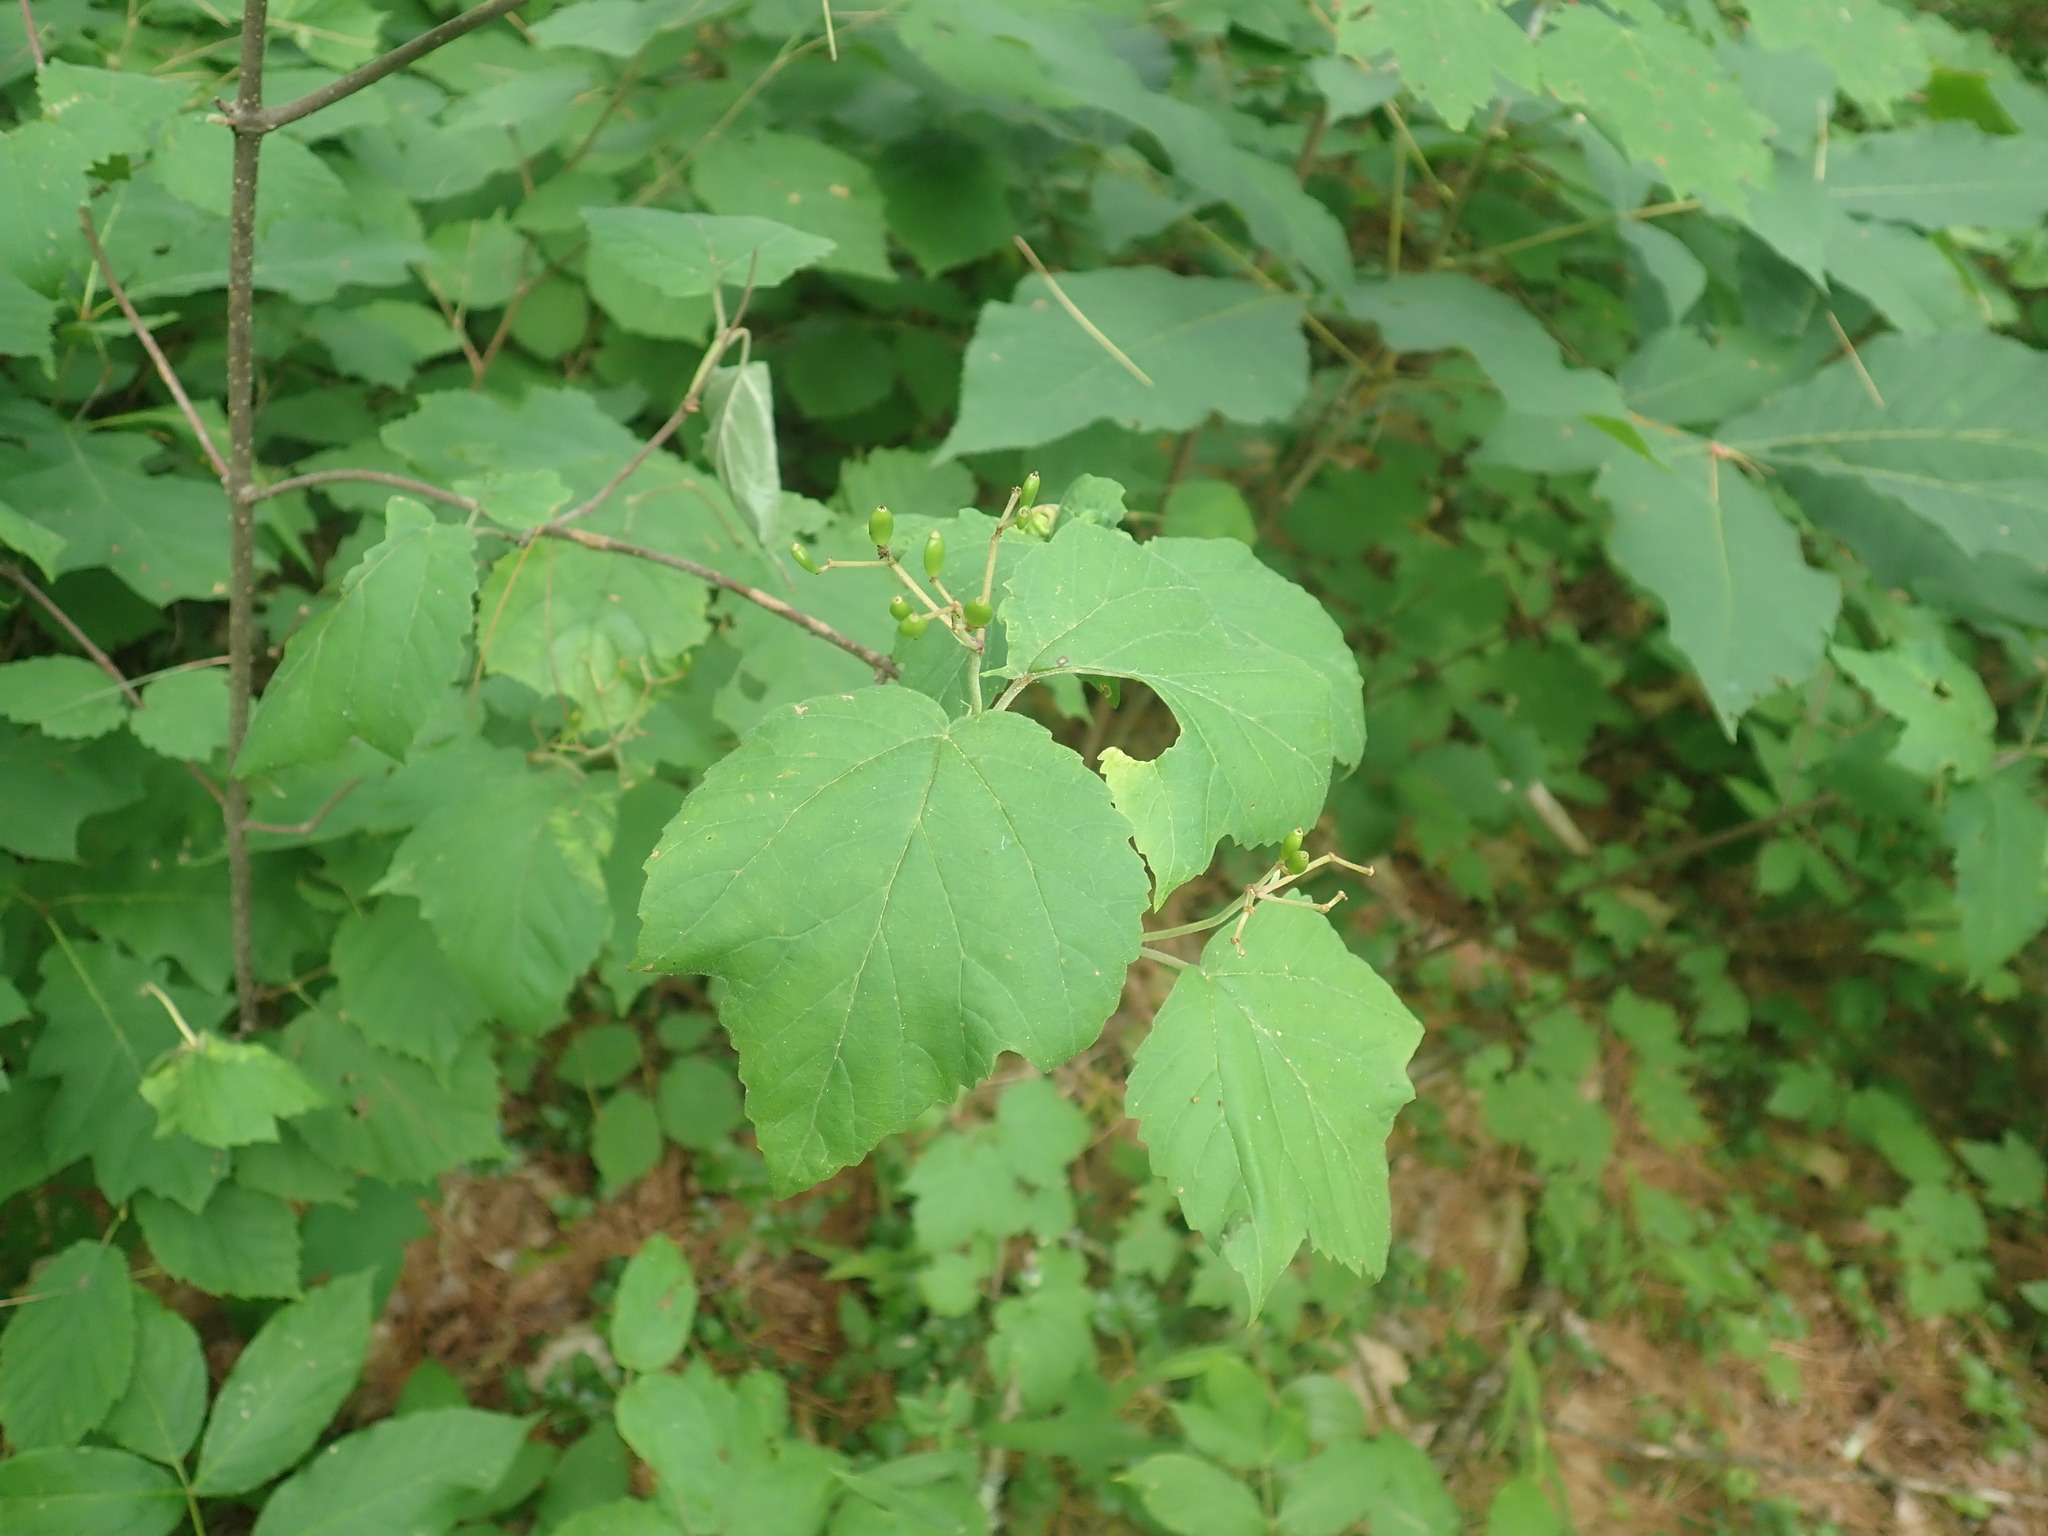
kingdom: Plantae
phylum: Tracheophyta
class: Magnoliopsida
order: Dipsacales
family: Viburnaceae
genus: Viburnum
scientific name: Viburnum acerifolium
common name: Dockmackie
